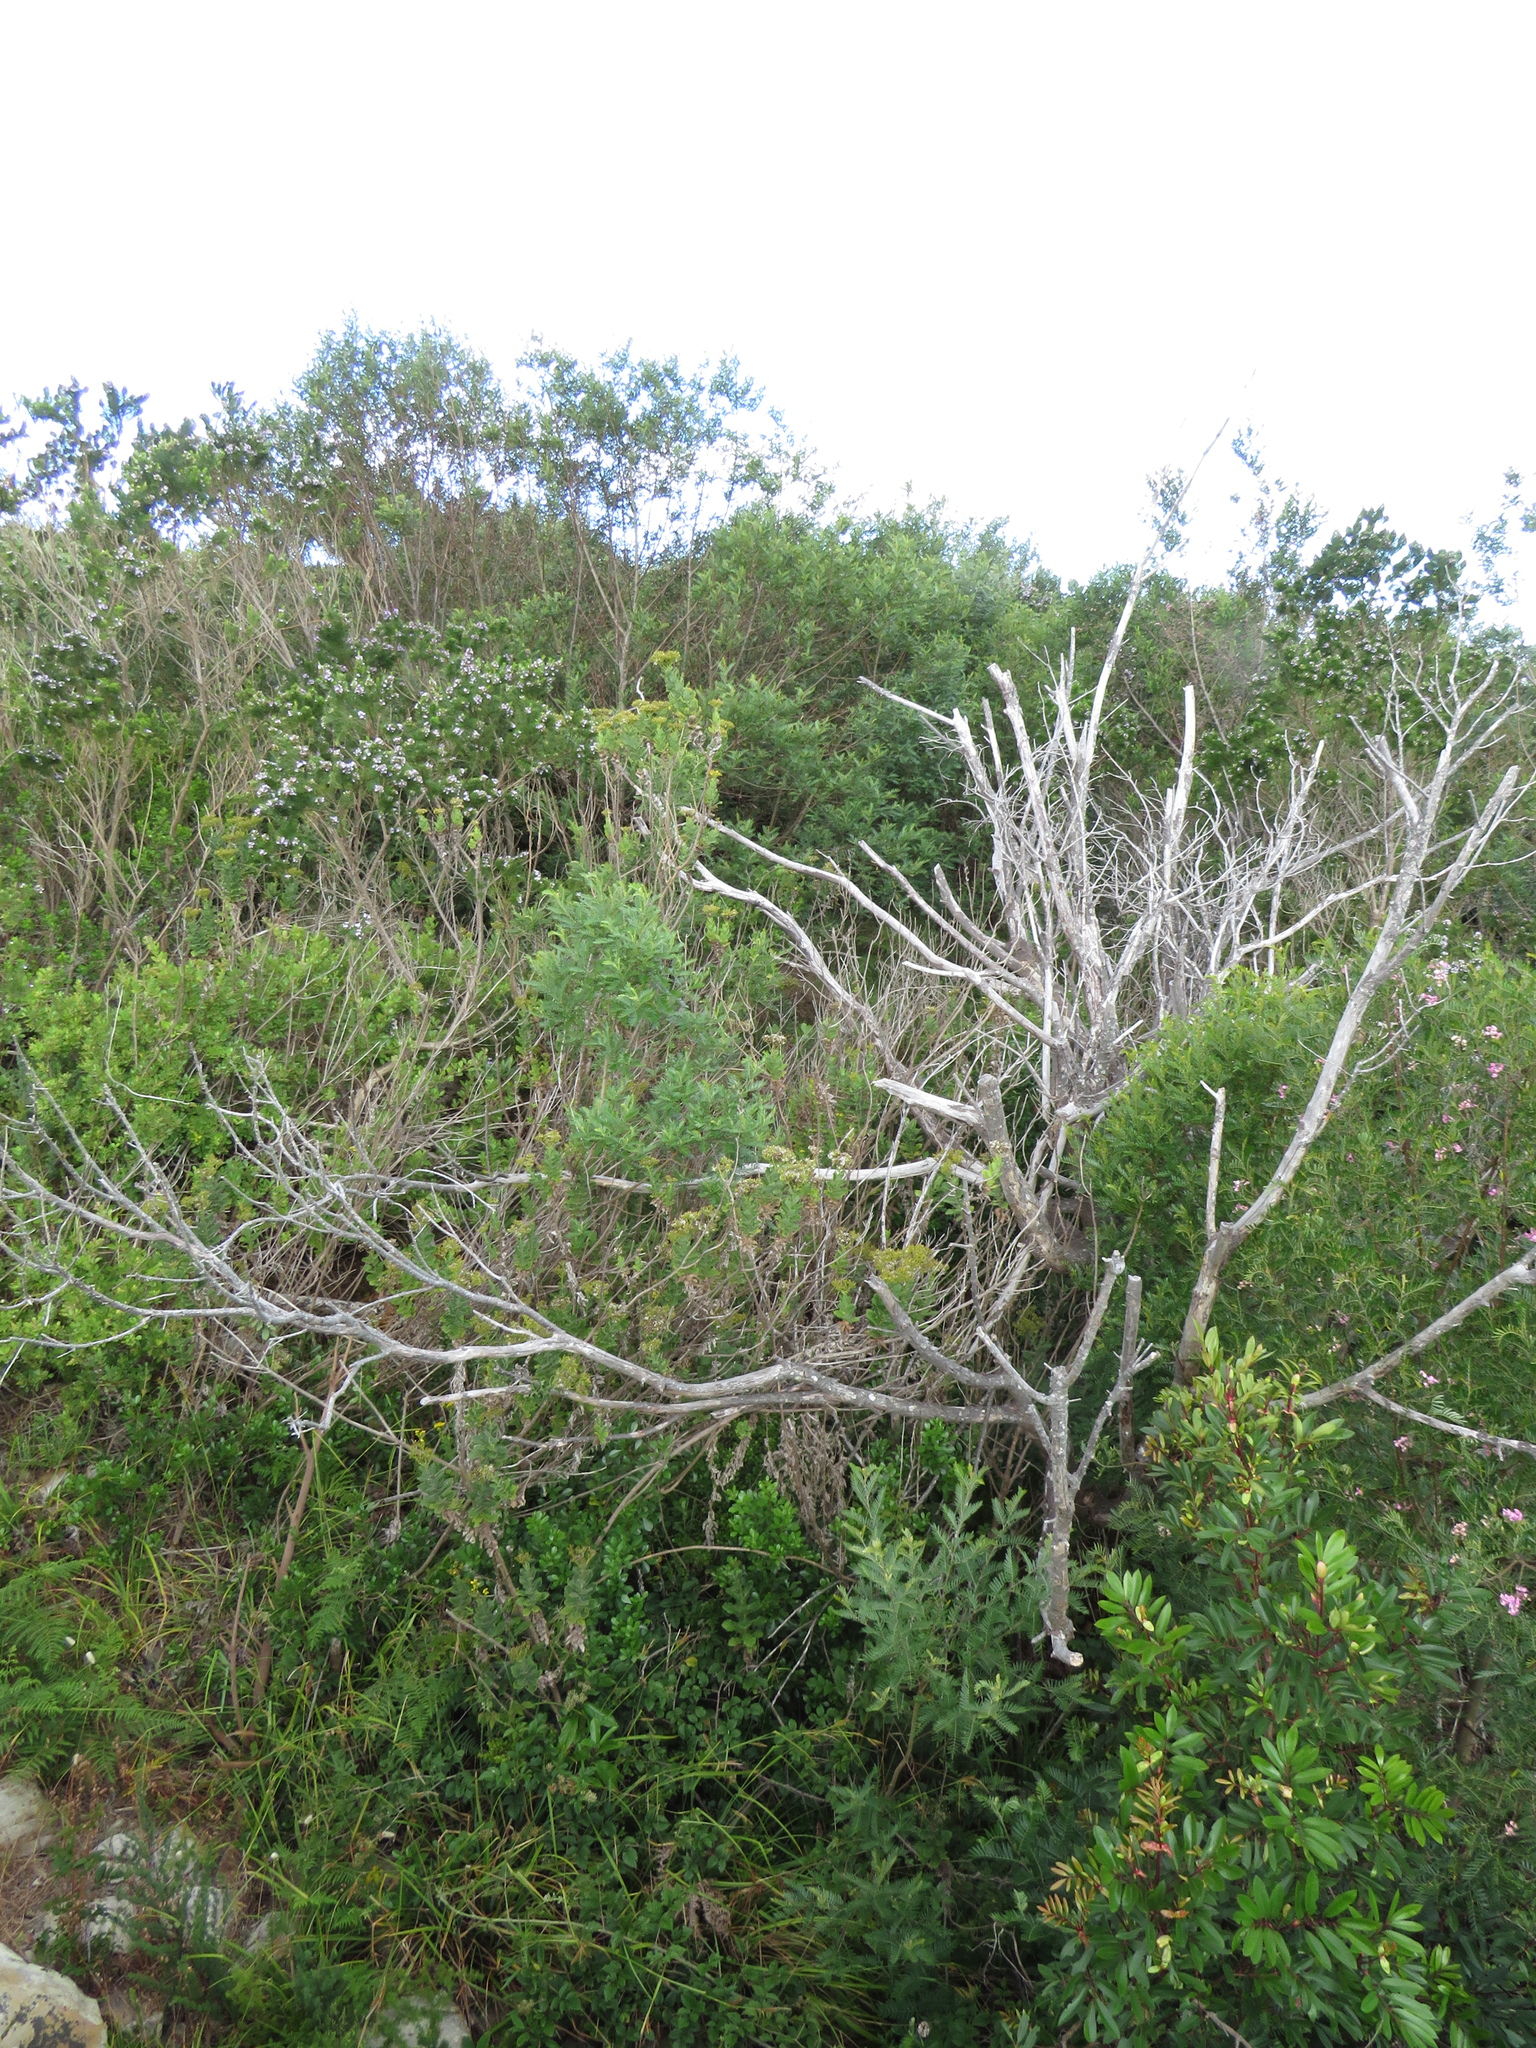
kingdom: Plantae
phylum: Tracheophyta
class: Magnoliopsida
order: Asterales
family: Asteraceae
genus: Senecio
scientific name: Senecio rigidus
